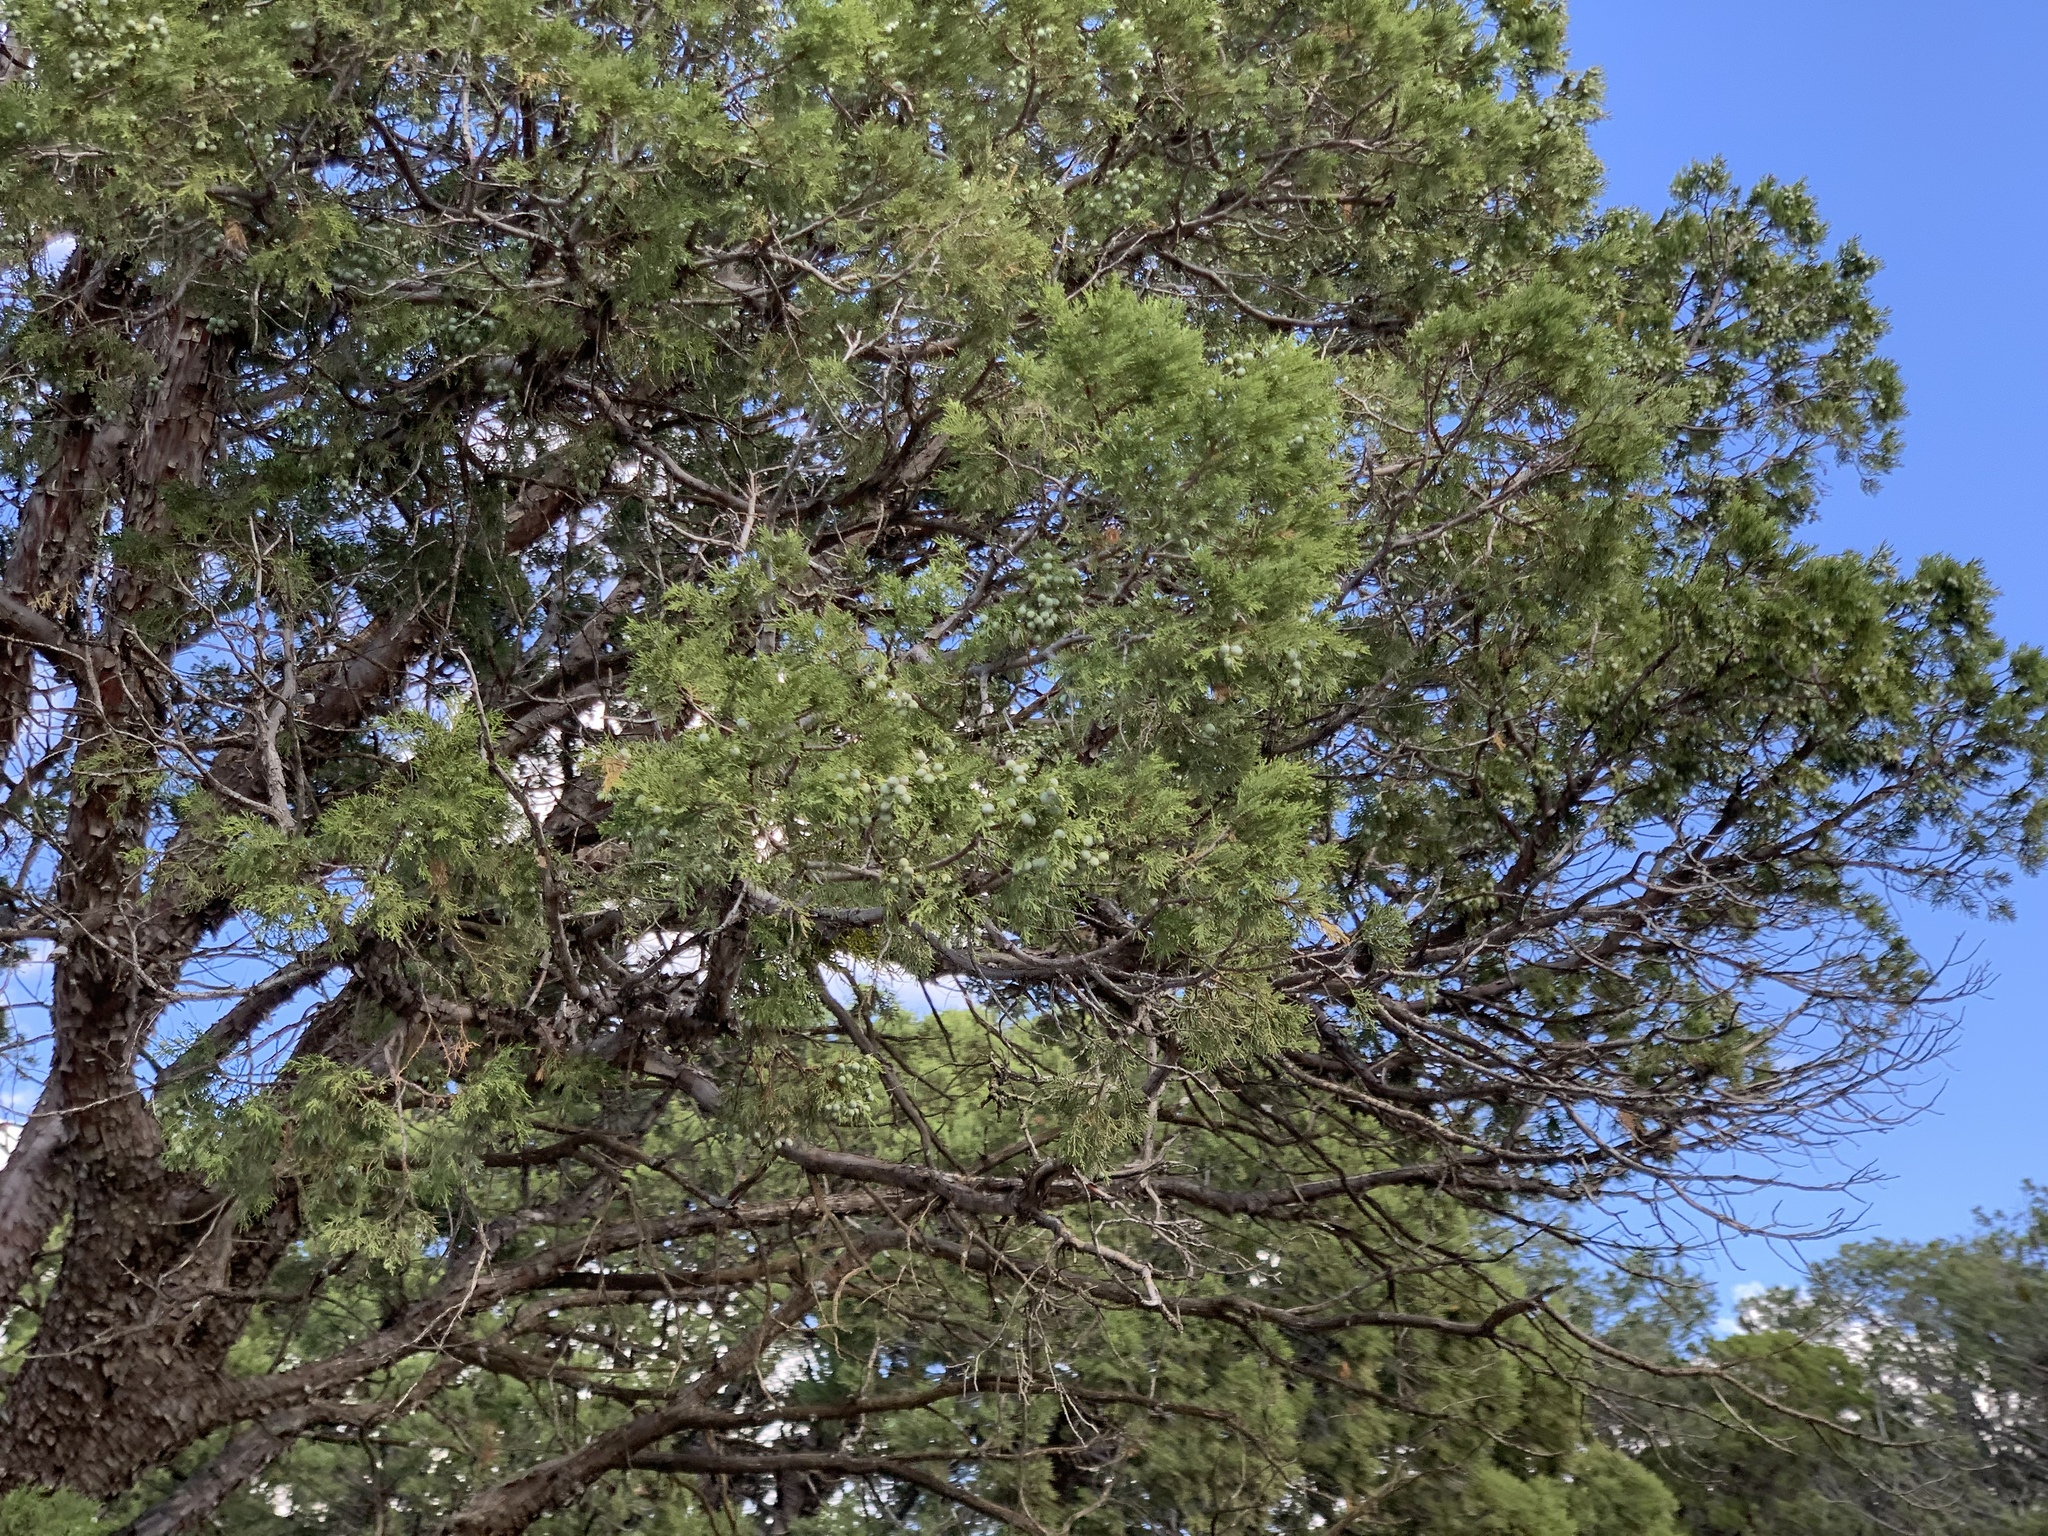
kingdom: Plantae
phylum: Tracheophyta
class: Pinopsida
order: Pinales
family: Cupressaceae
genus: Juniperus
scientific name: Juniperus deppeana
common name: Alligator juniper
